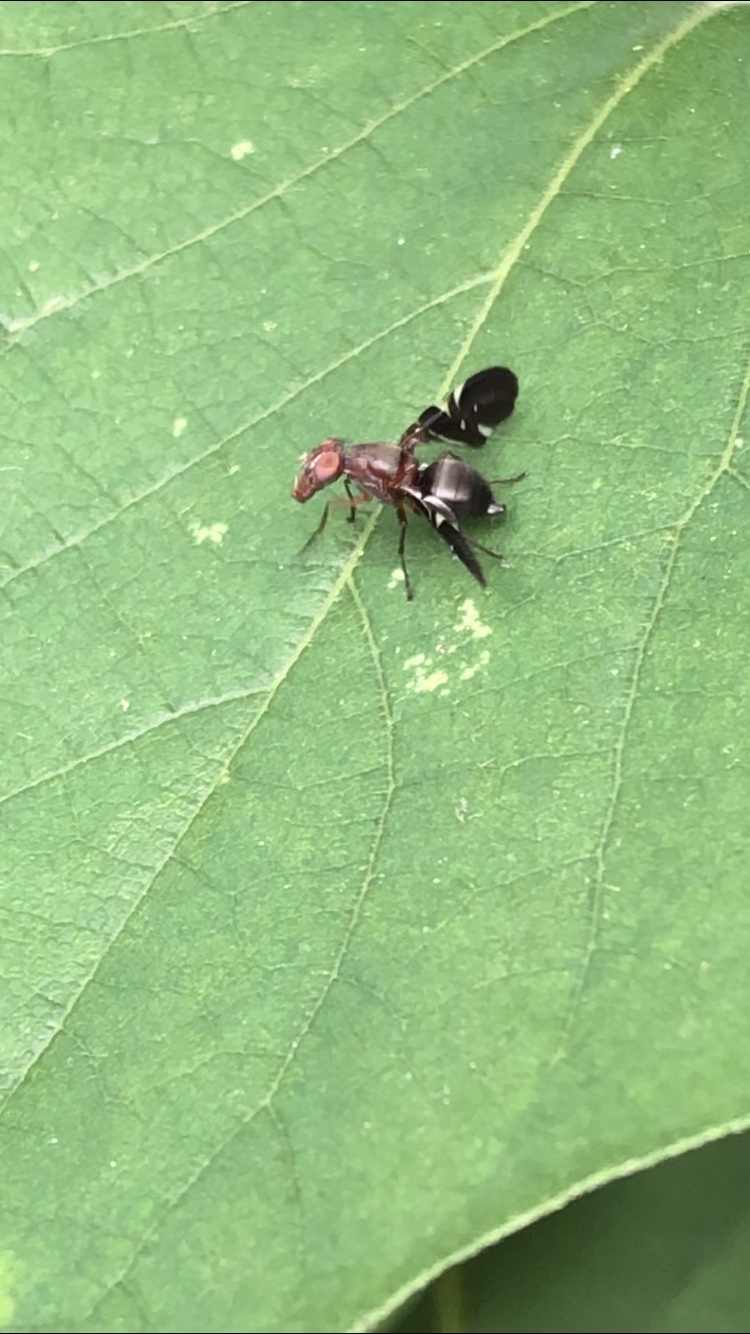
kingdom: Animalia
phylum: Arthropoda
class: Insecta
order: Diptera
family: Ulidiidae
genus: Delphinia
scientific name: Delphinia picta
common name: Common picture-winged fly
